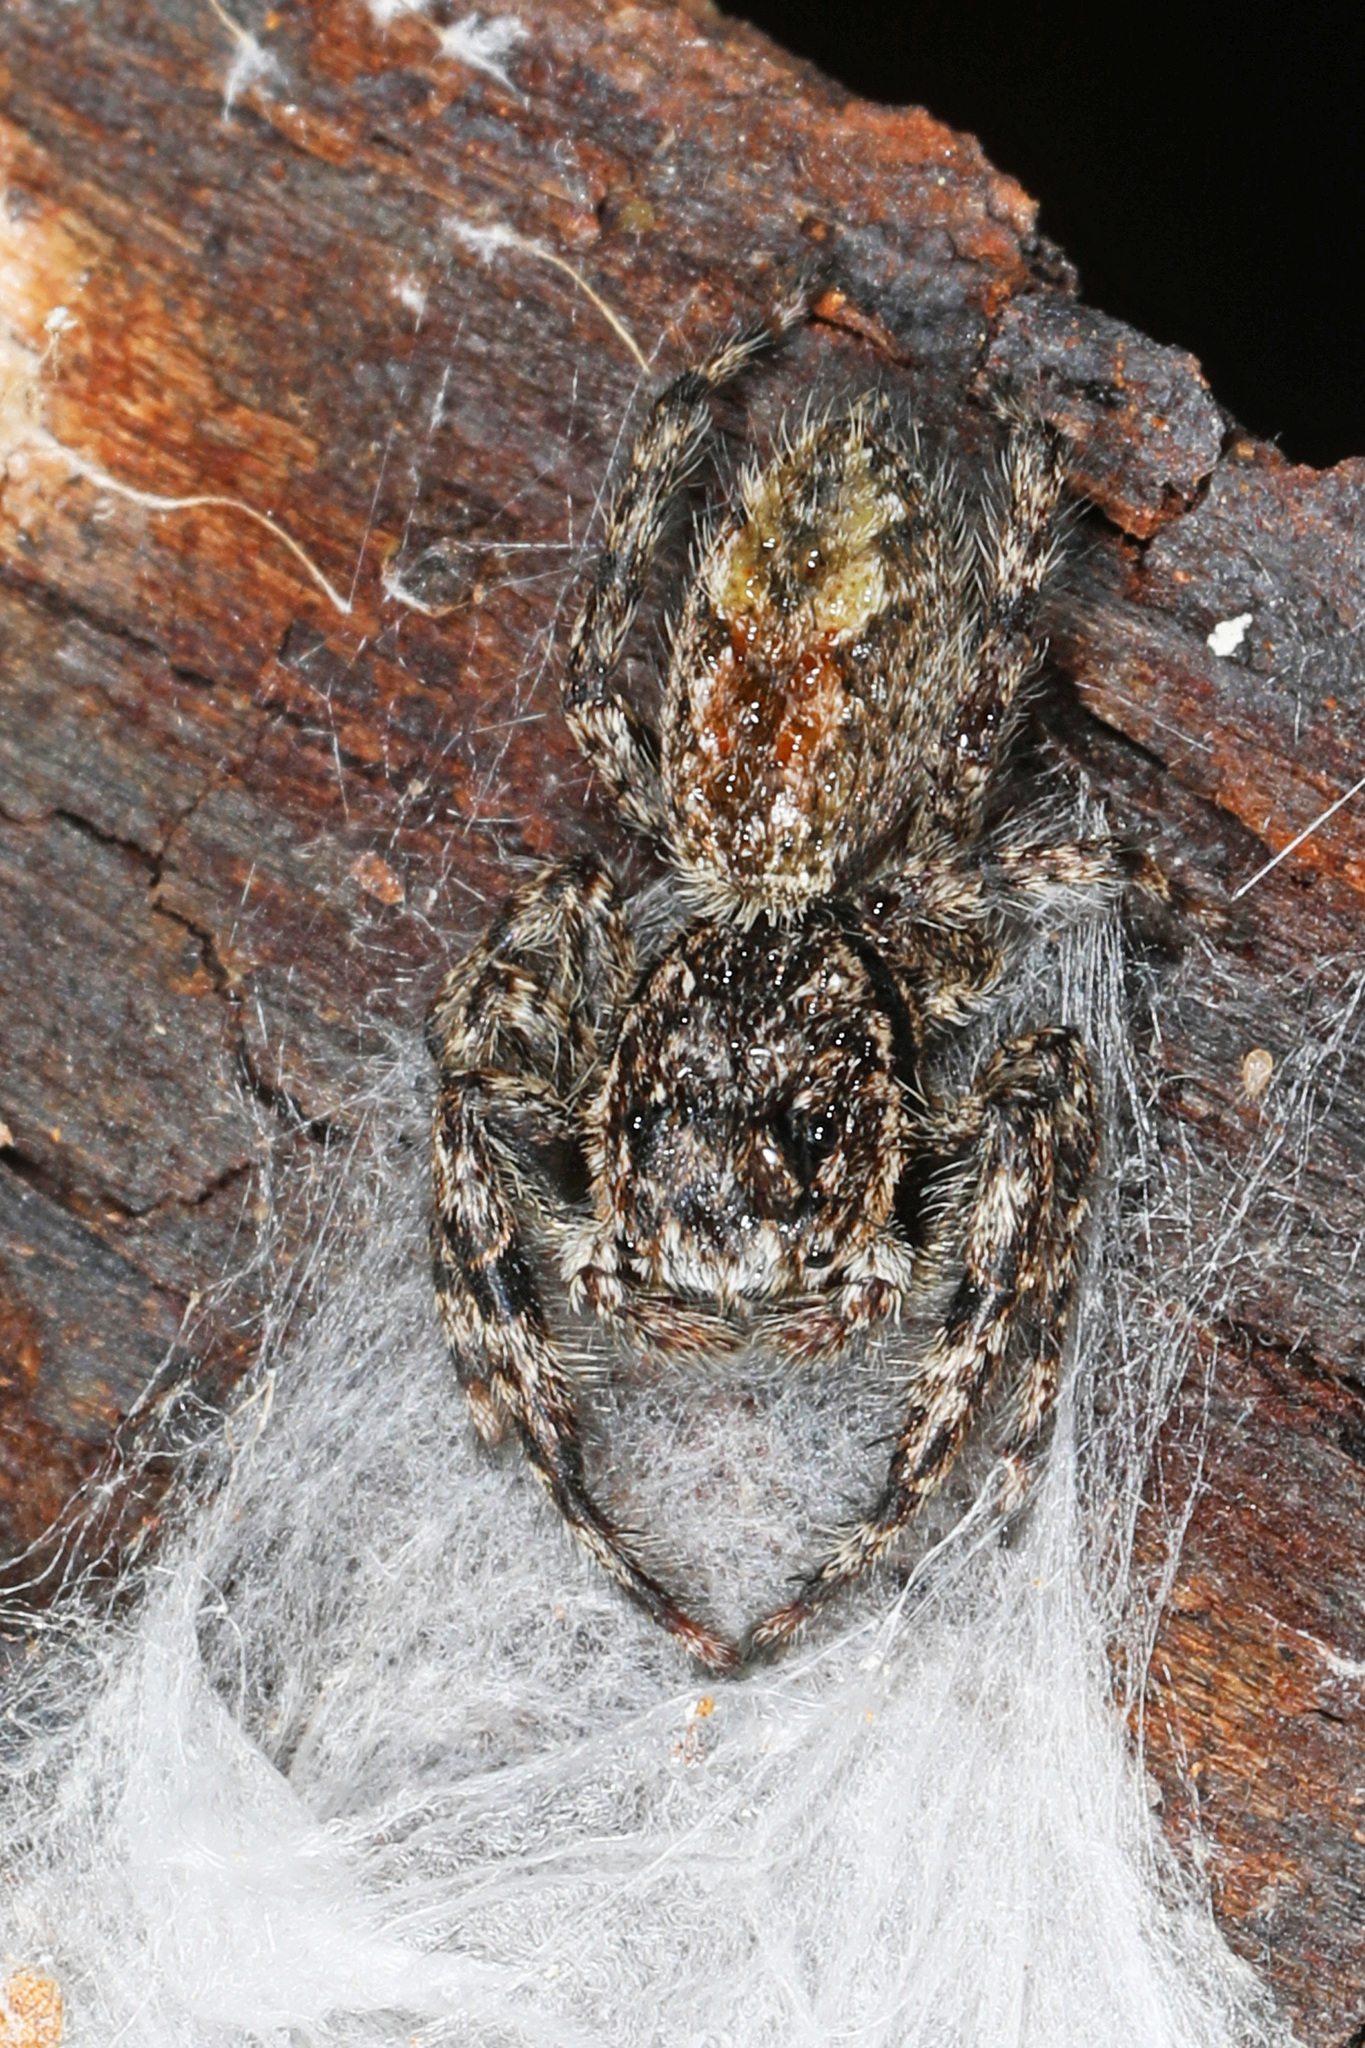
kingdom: Animalia
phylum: Arthropoda
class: Arachnida
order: Araneae
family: Salticidae
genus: Platycryptus
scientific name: Platycryptus undatus
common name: Tan jumping spider
